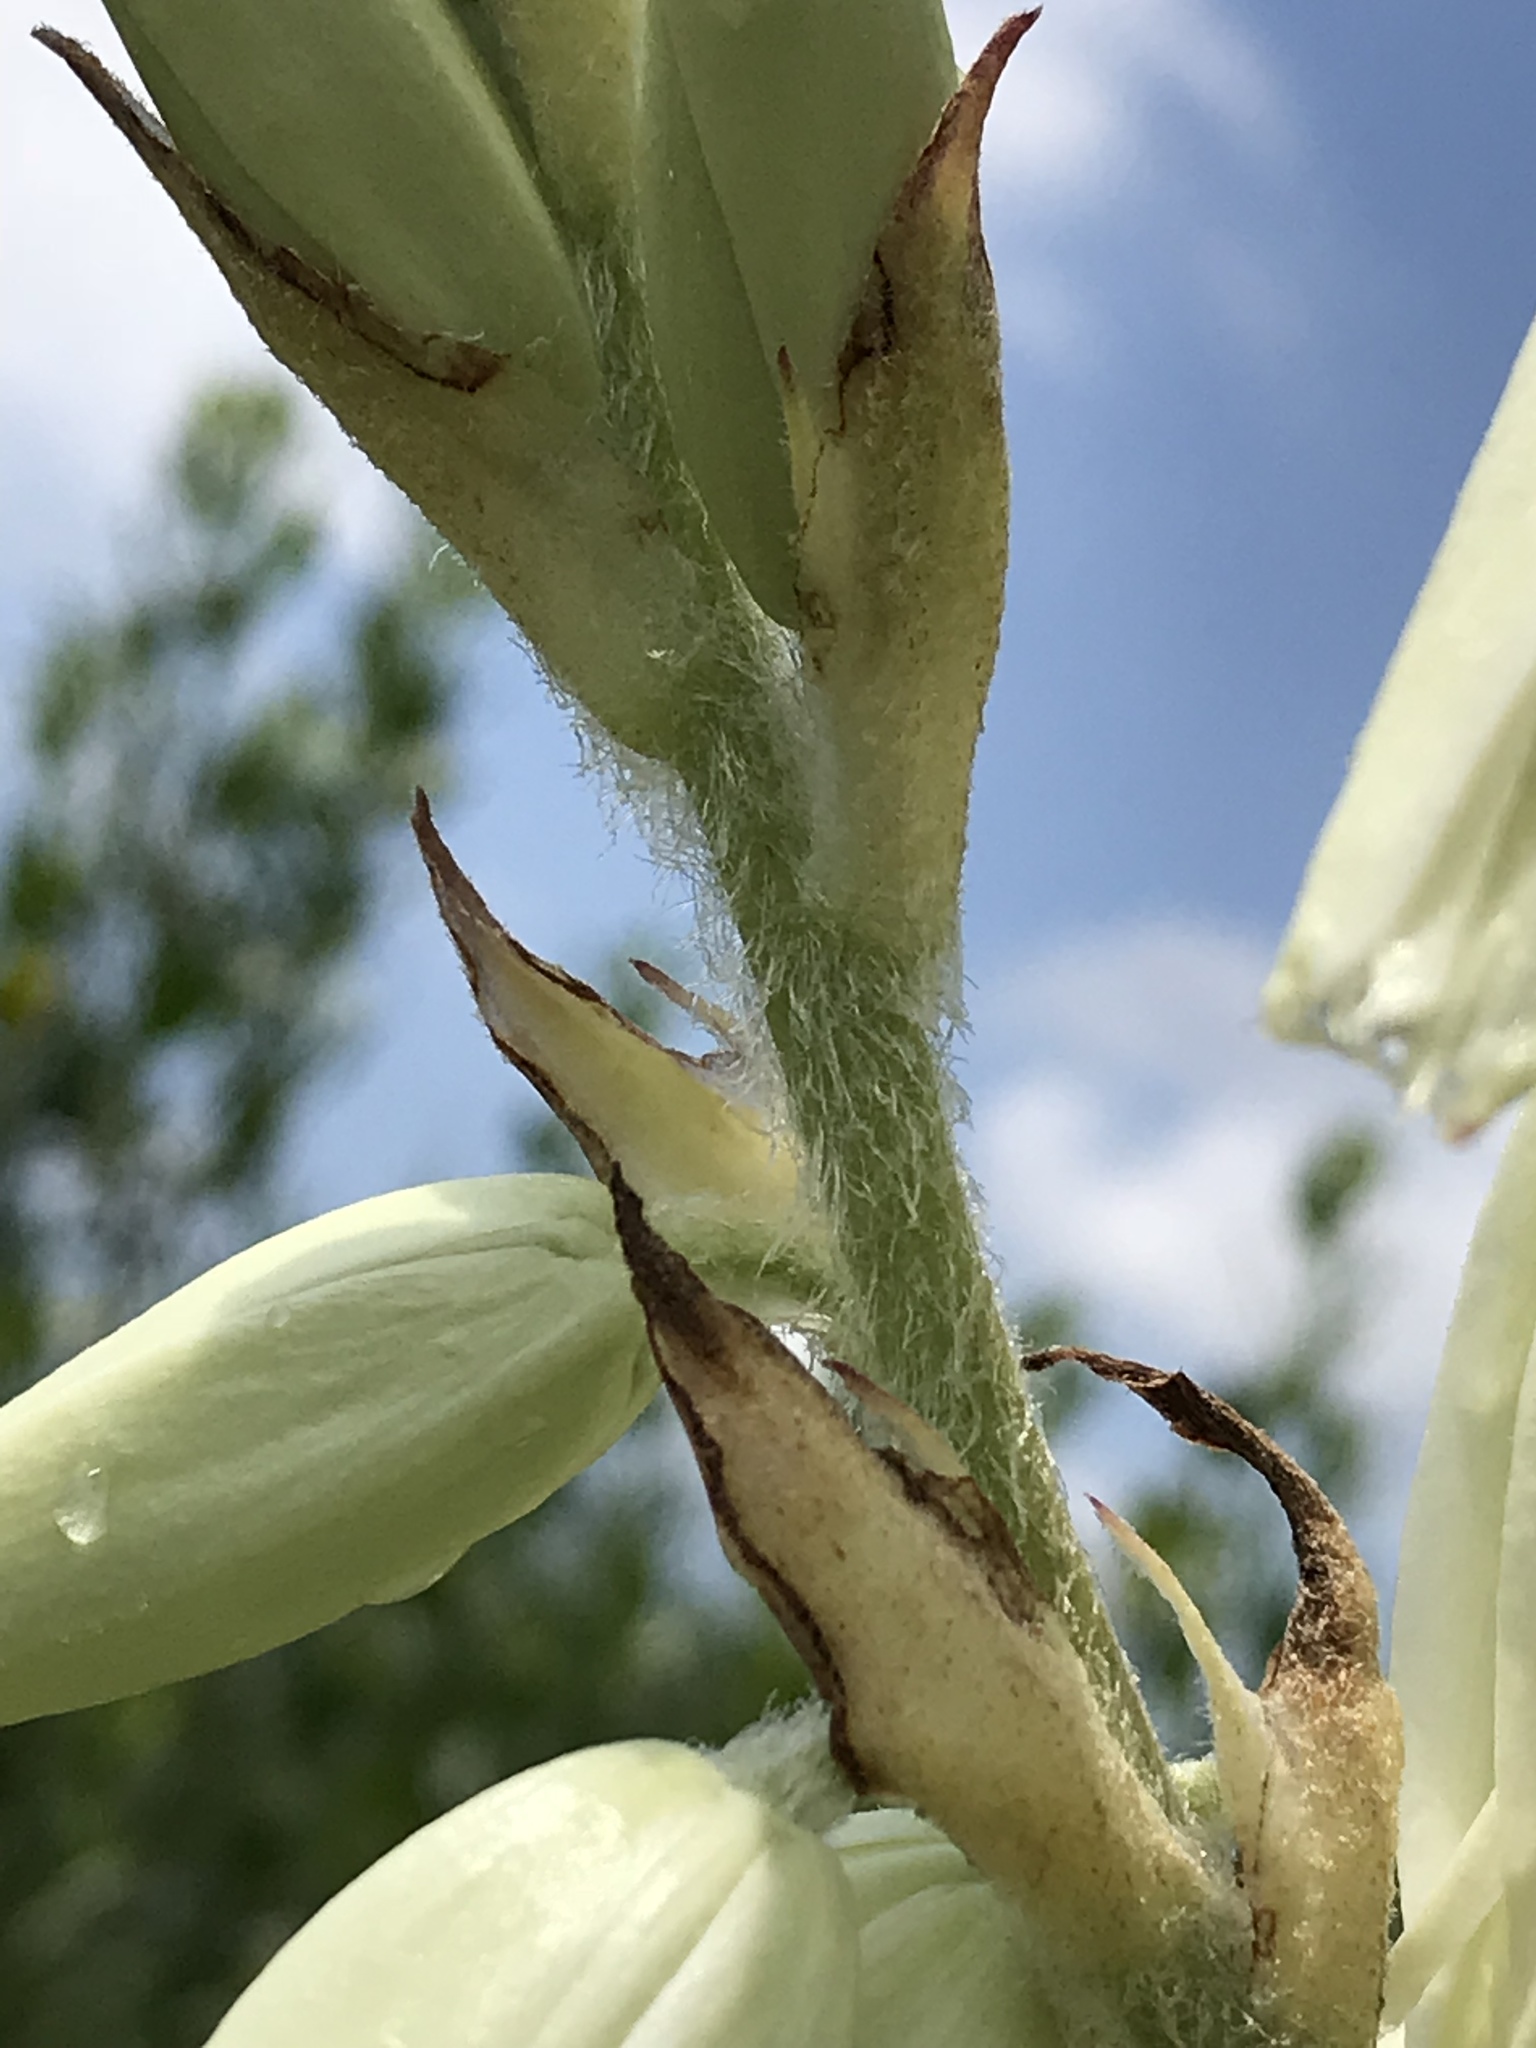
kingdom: Plantae
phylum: Tracheophyta
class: Liliopsida
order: Asparagales
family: Asparagaceae
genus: Yucca
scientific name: Yucca cernua
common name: Nodding yucca
